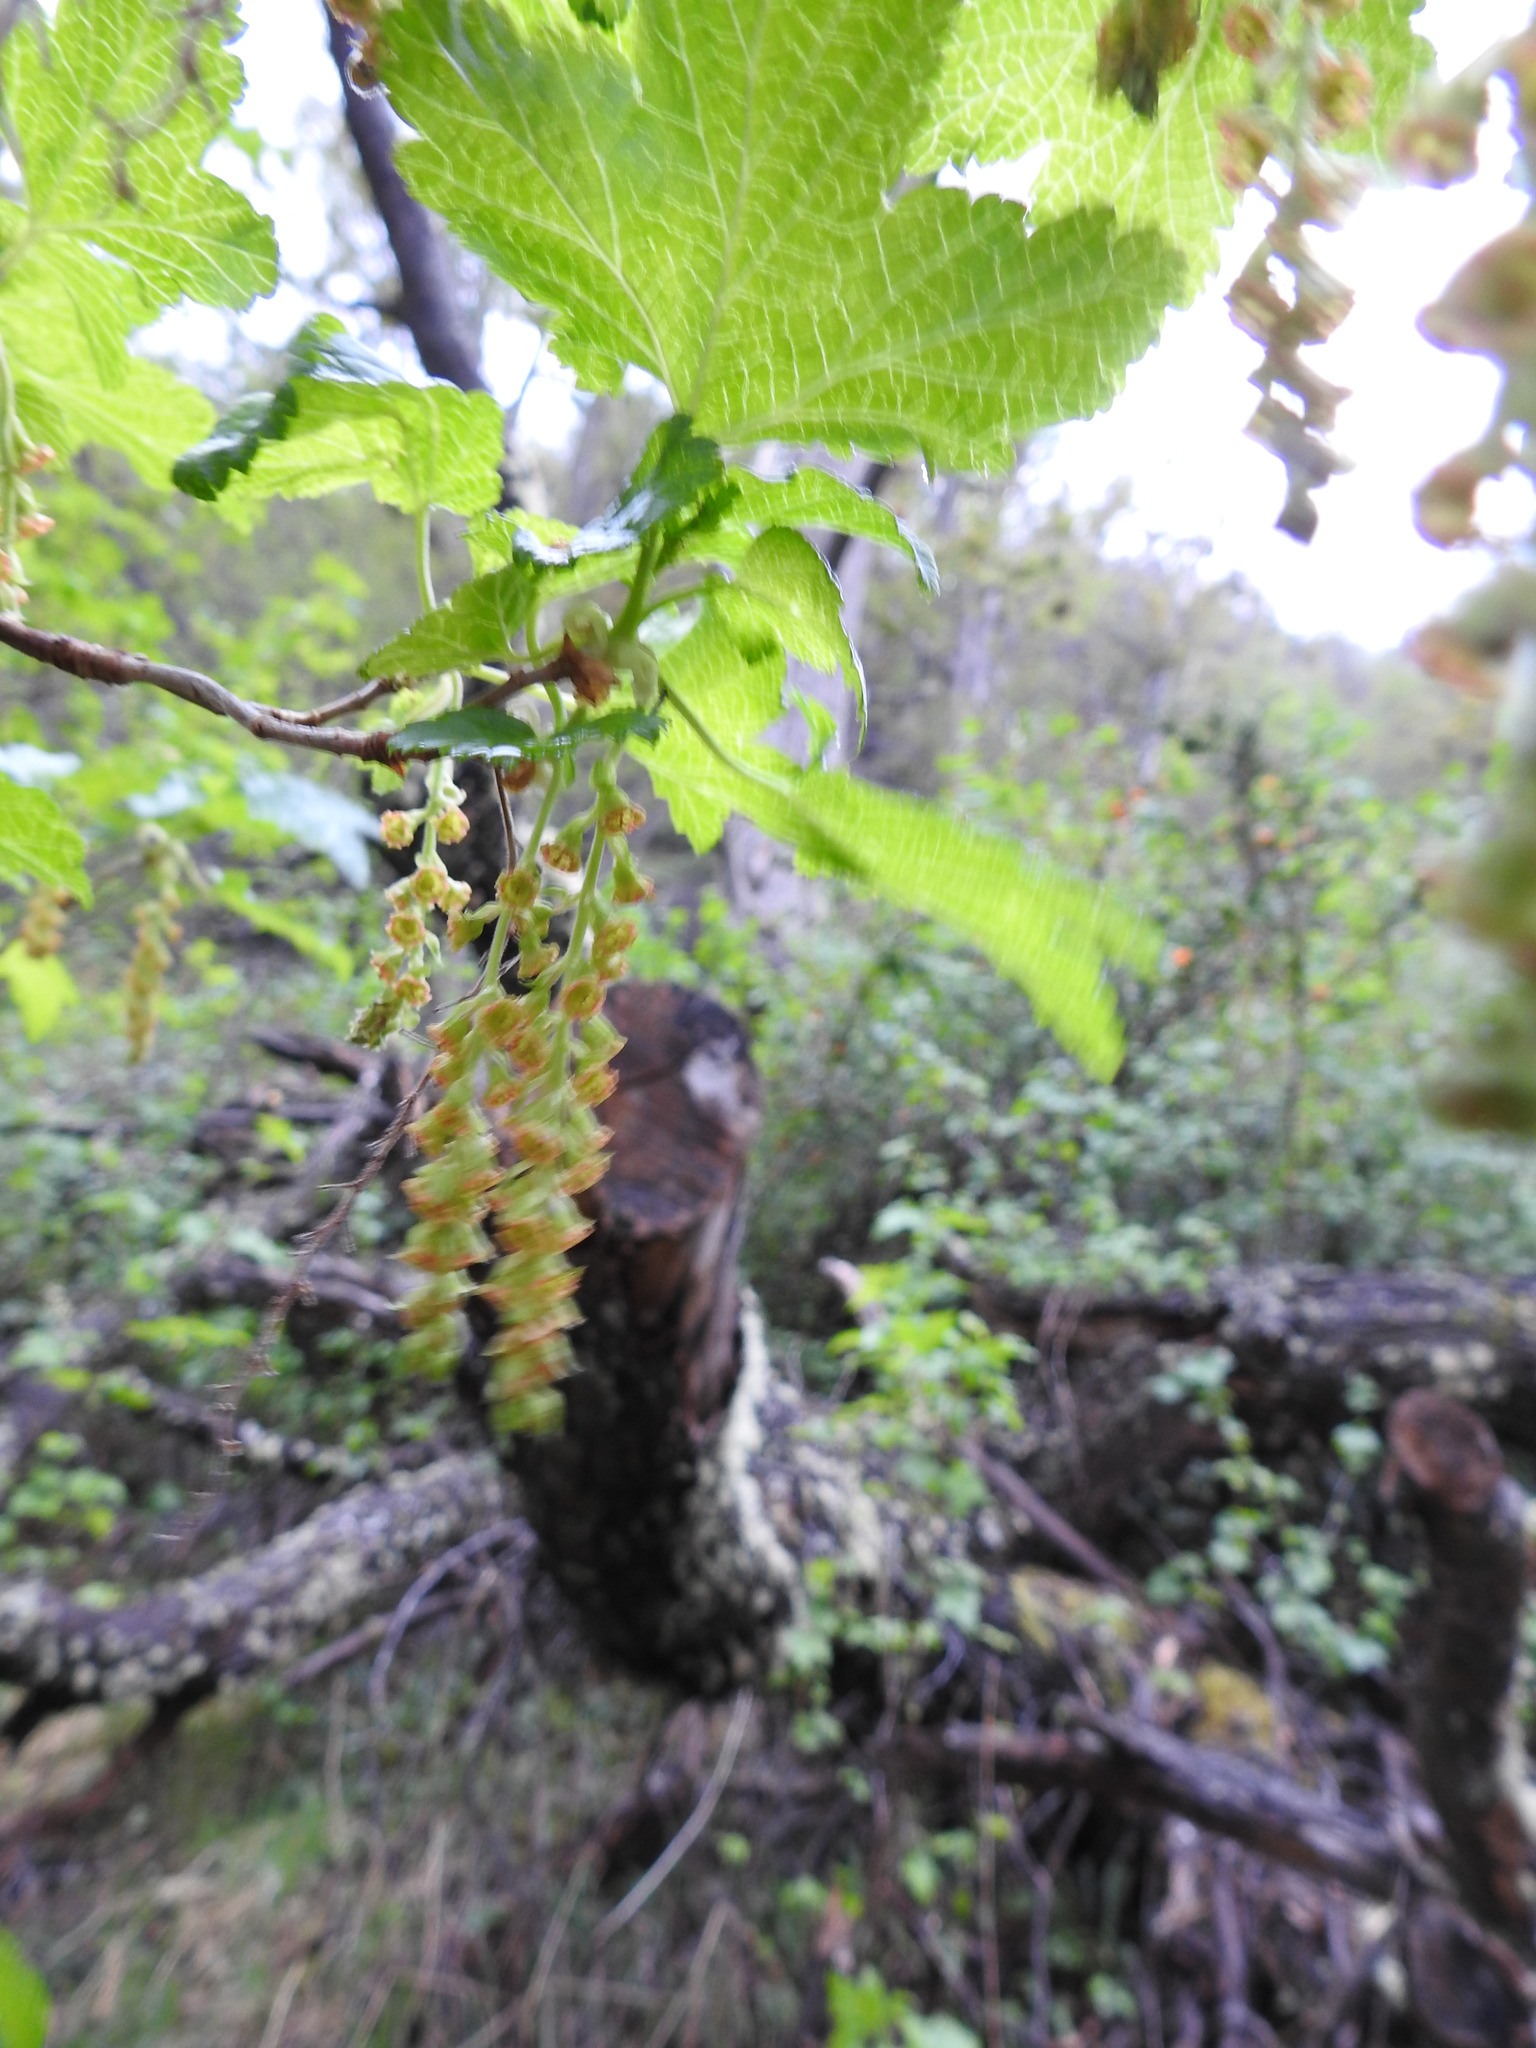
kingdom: Plantae
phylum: Tracheophyta
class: Magnoliopsida
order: Saxifragales
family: Grossulariaceae
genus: Ribes
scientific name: Ribes magellanicum
